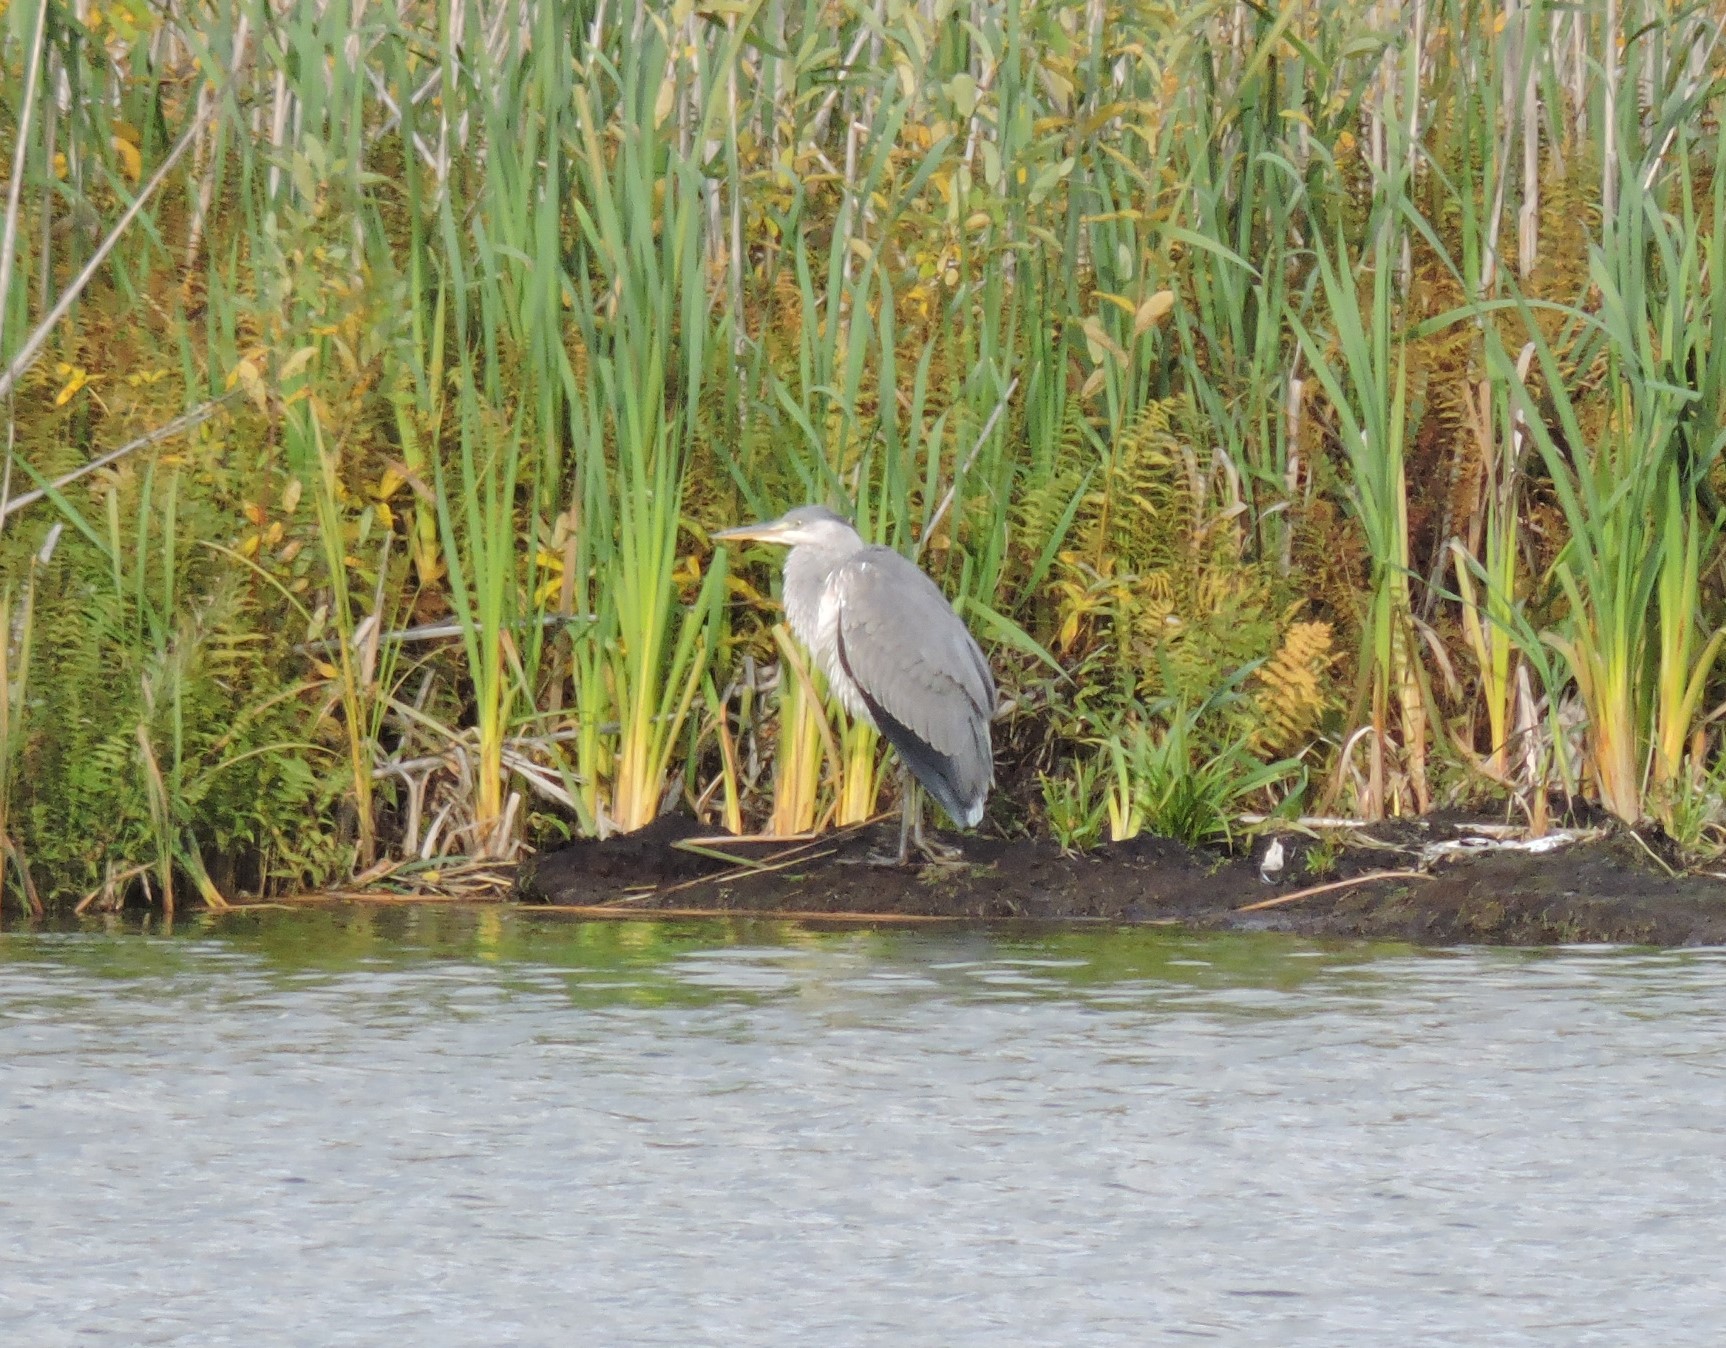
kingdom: Animalia
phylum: Chordata
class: Aves
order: Pelecaniformes
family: Ardeidae
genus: Ardea
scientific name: Ardea cinerea
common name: Grey heron
